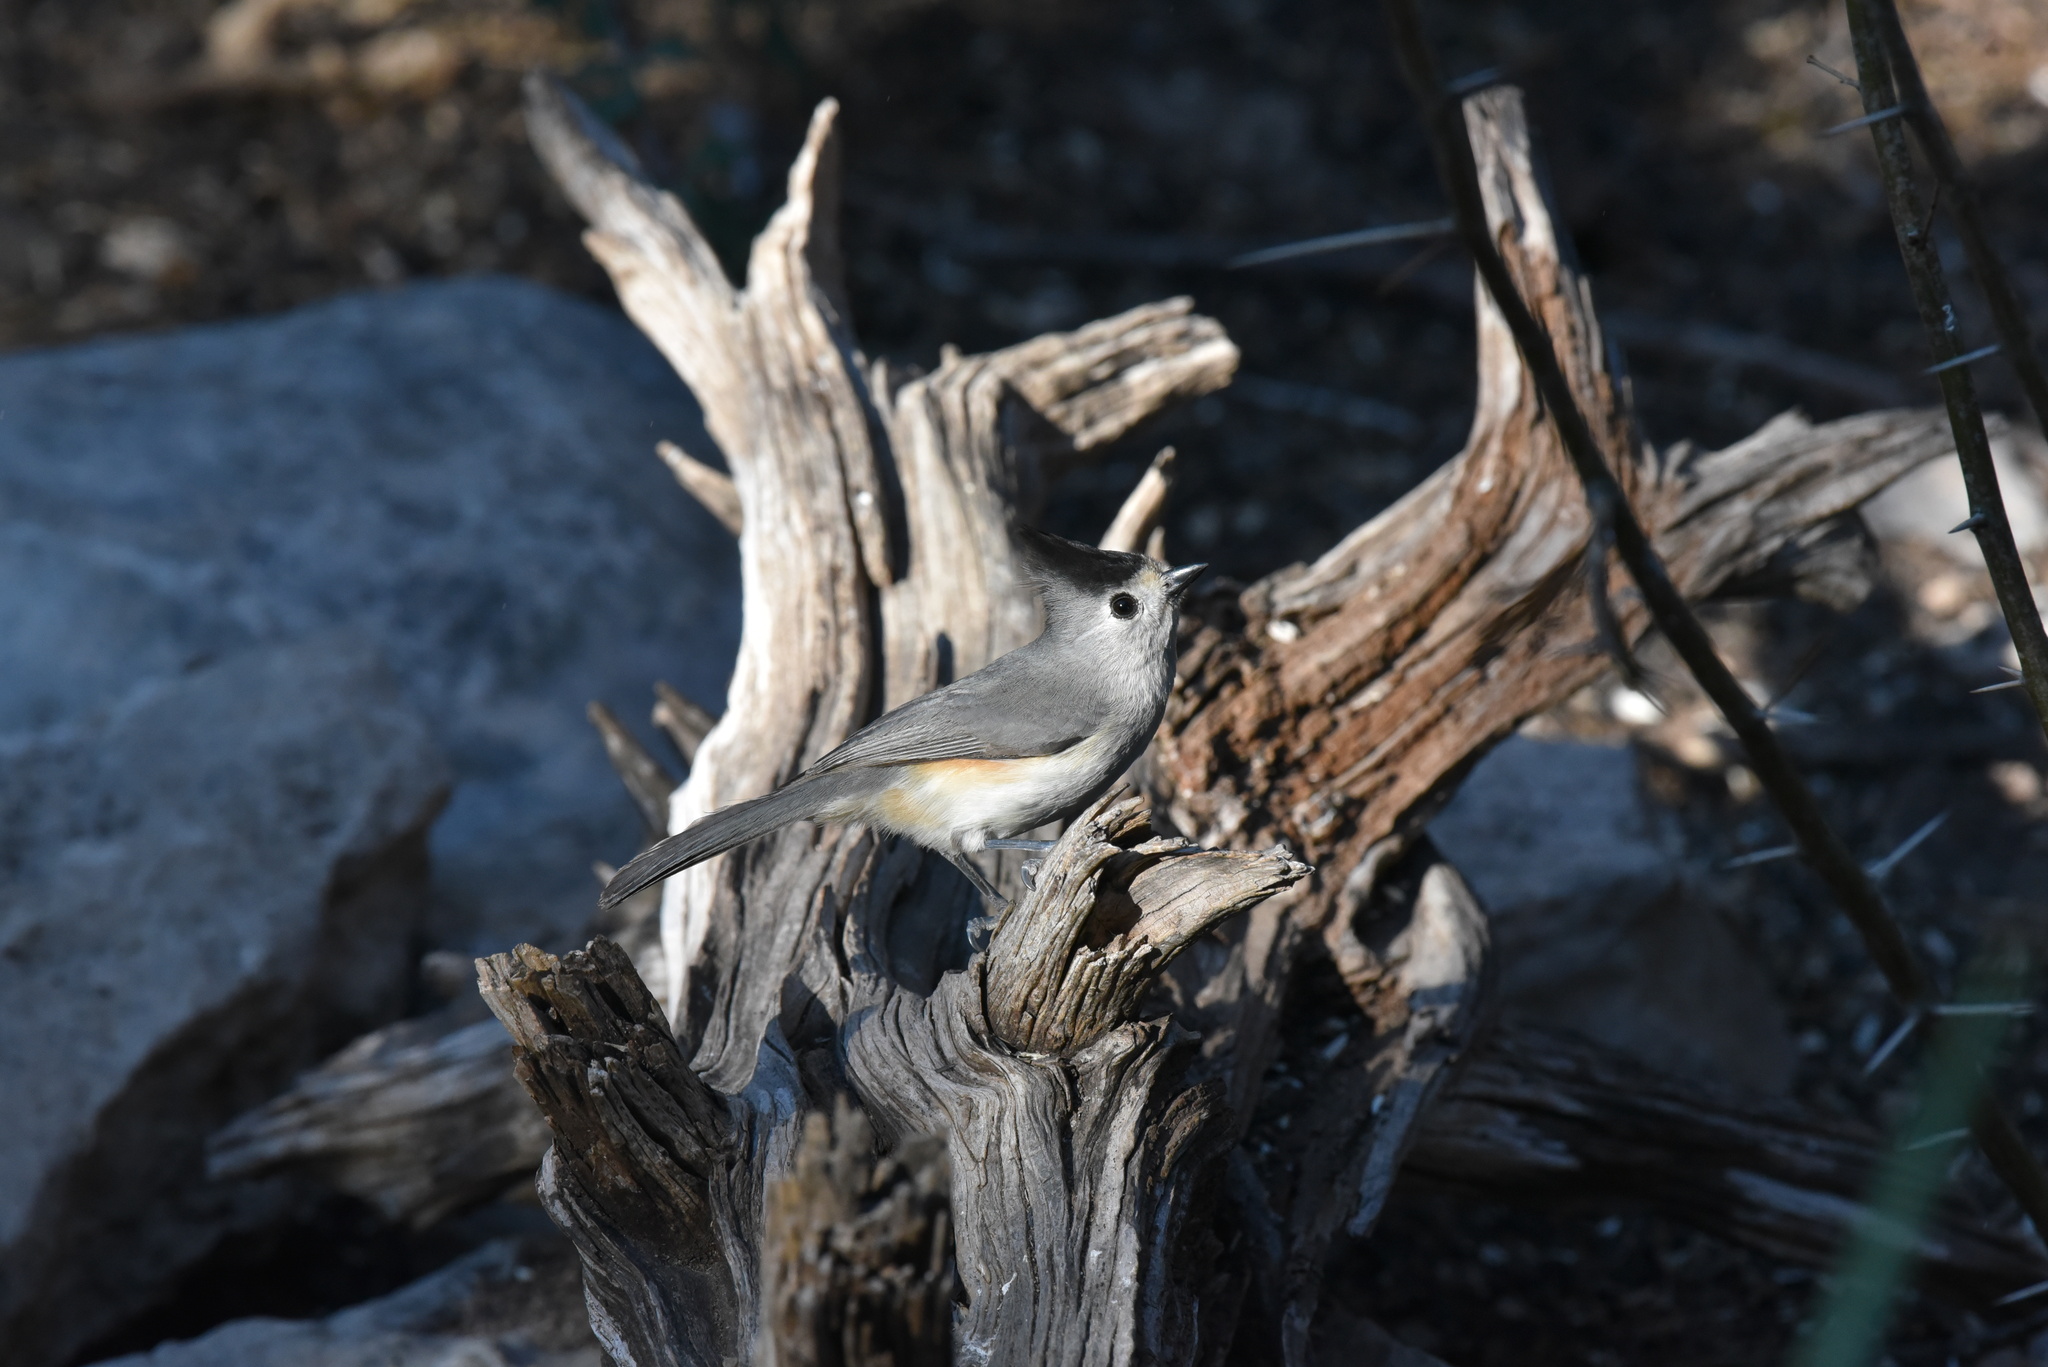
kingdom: Animalia
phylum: Chordata
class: Aves
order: Passeriformes
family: Paridae
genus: Baeolophus
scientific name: Baeolophus atricristatus
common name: Black-crested titmouse
